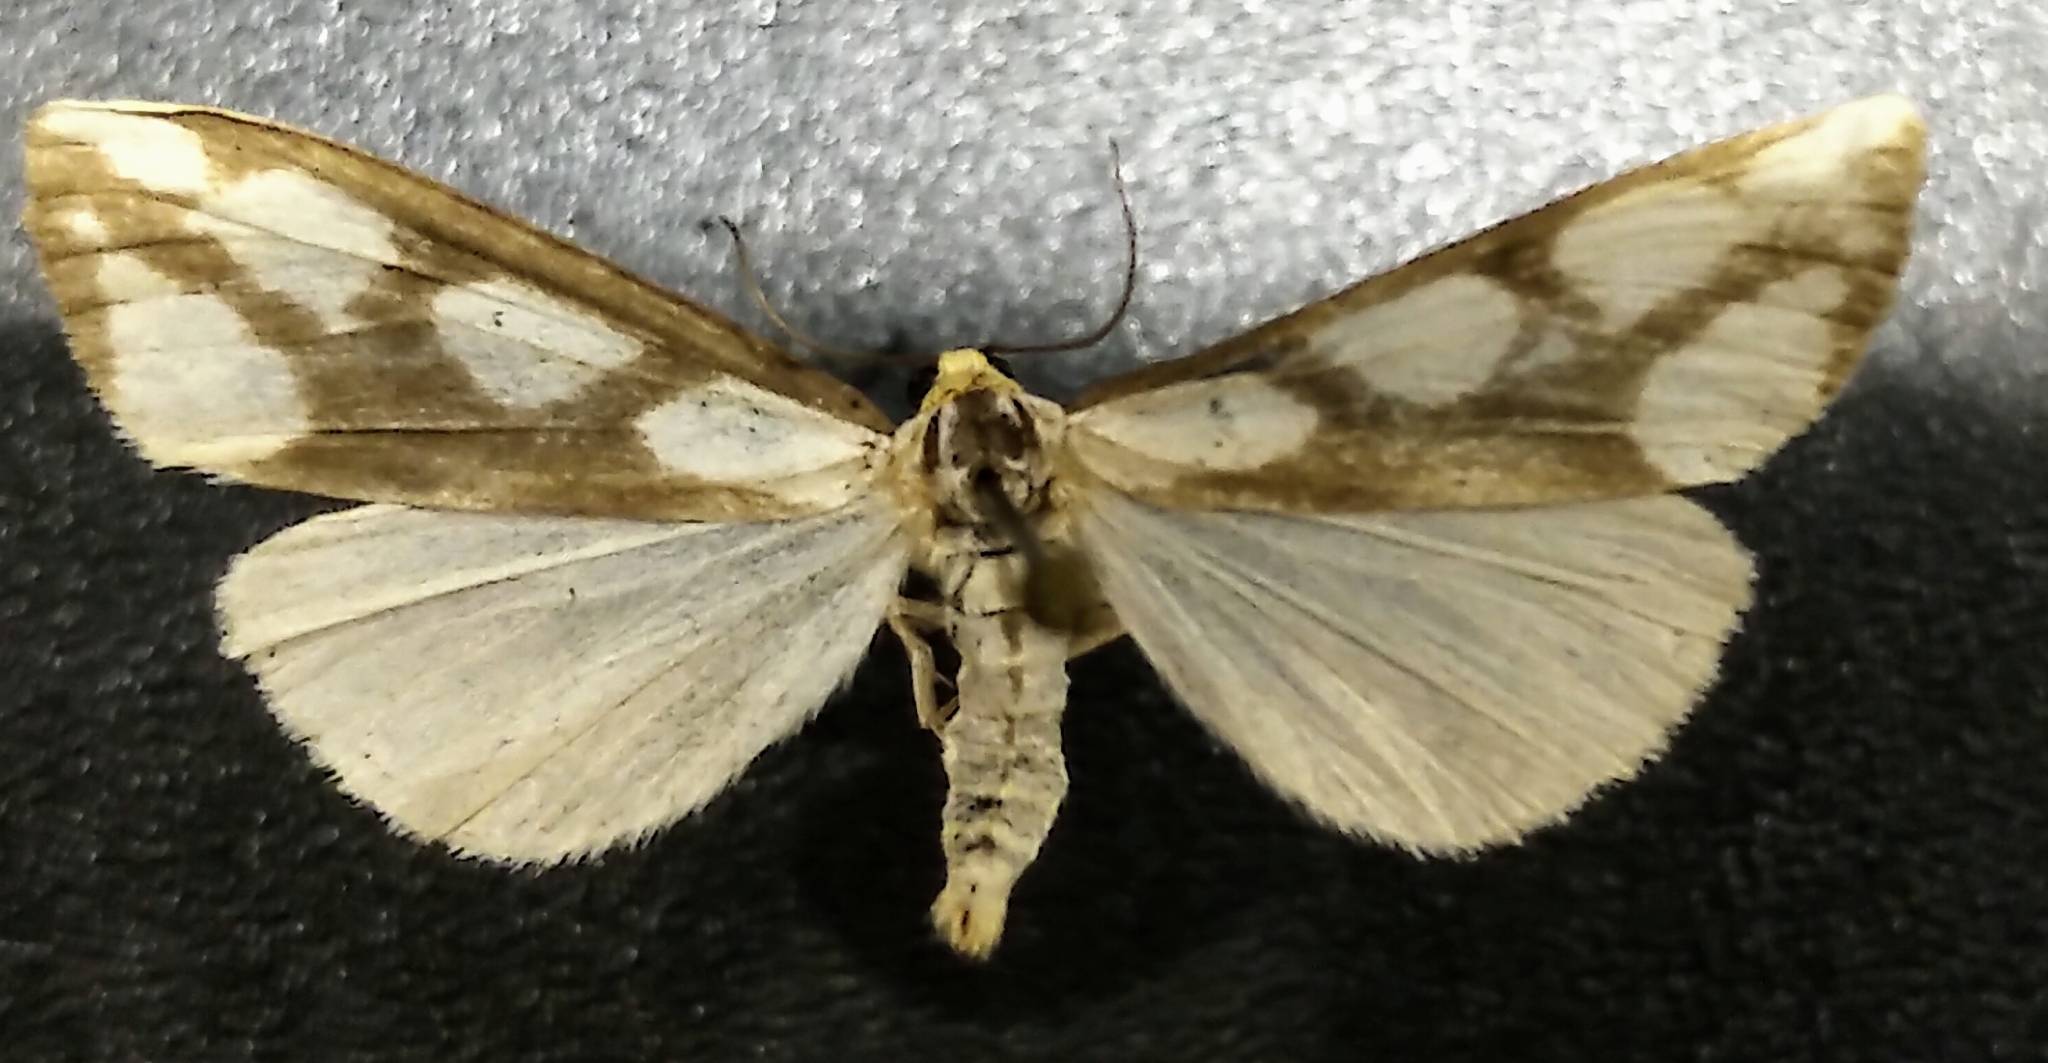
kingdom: Animalia
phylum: Arthropoda
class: Insecta
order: Lepidoptera
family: Erebidae
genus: Haploa
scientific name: Haploa lecontei
